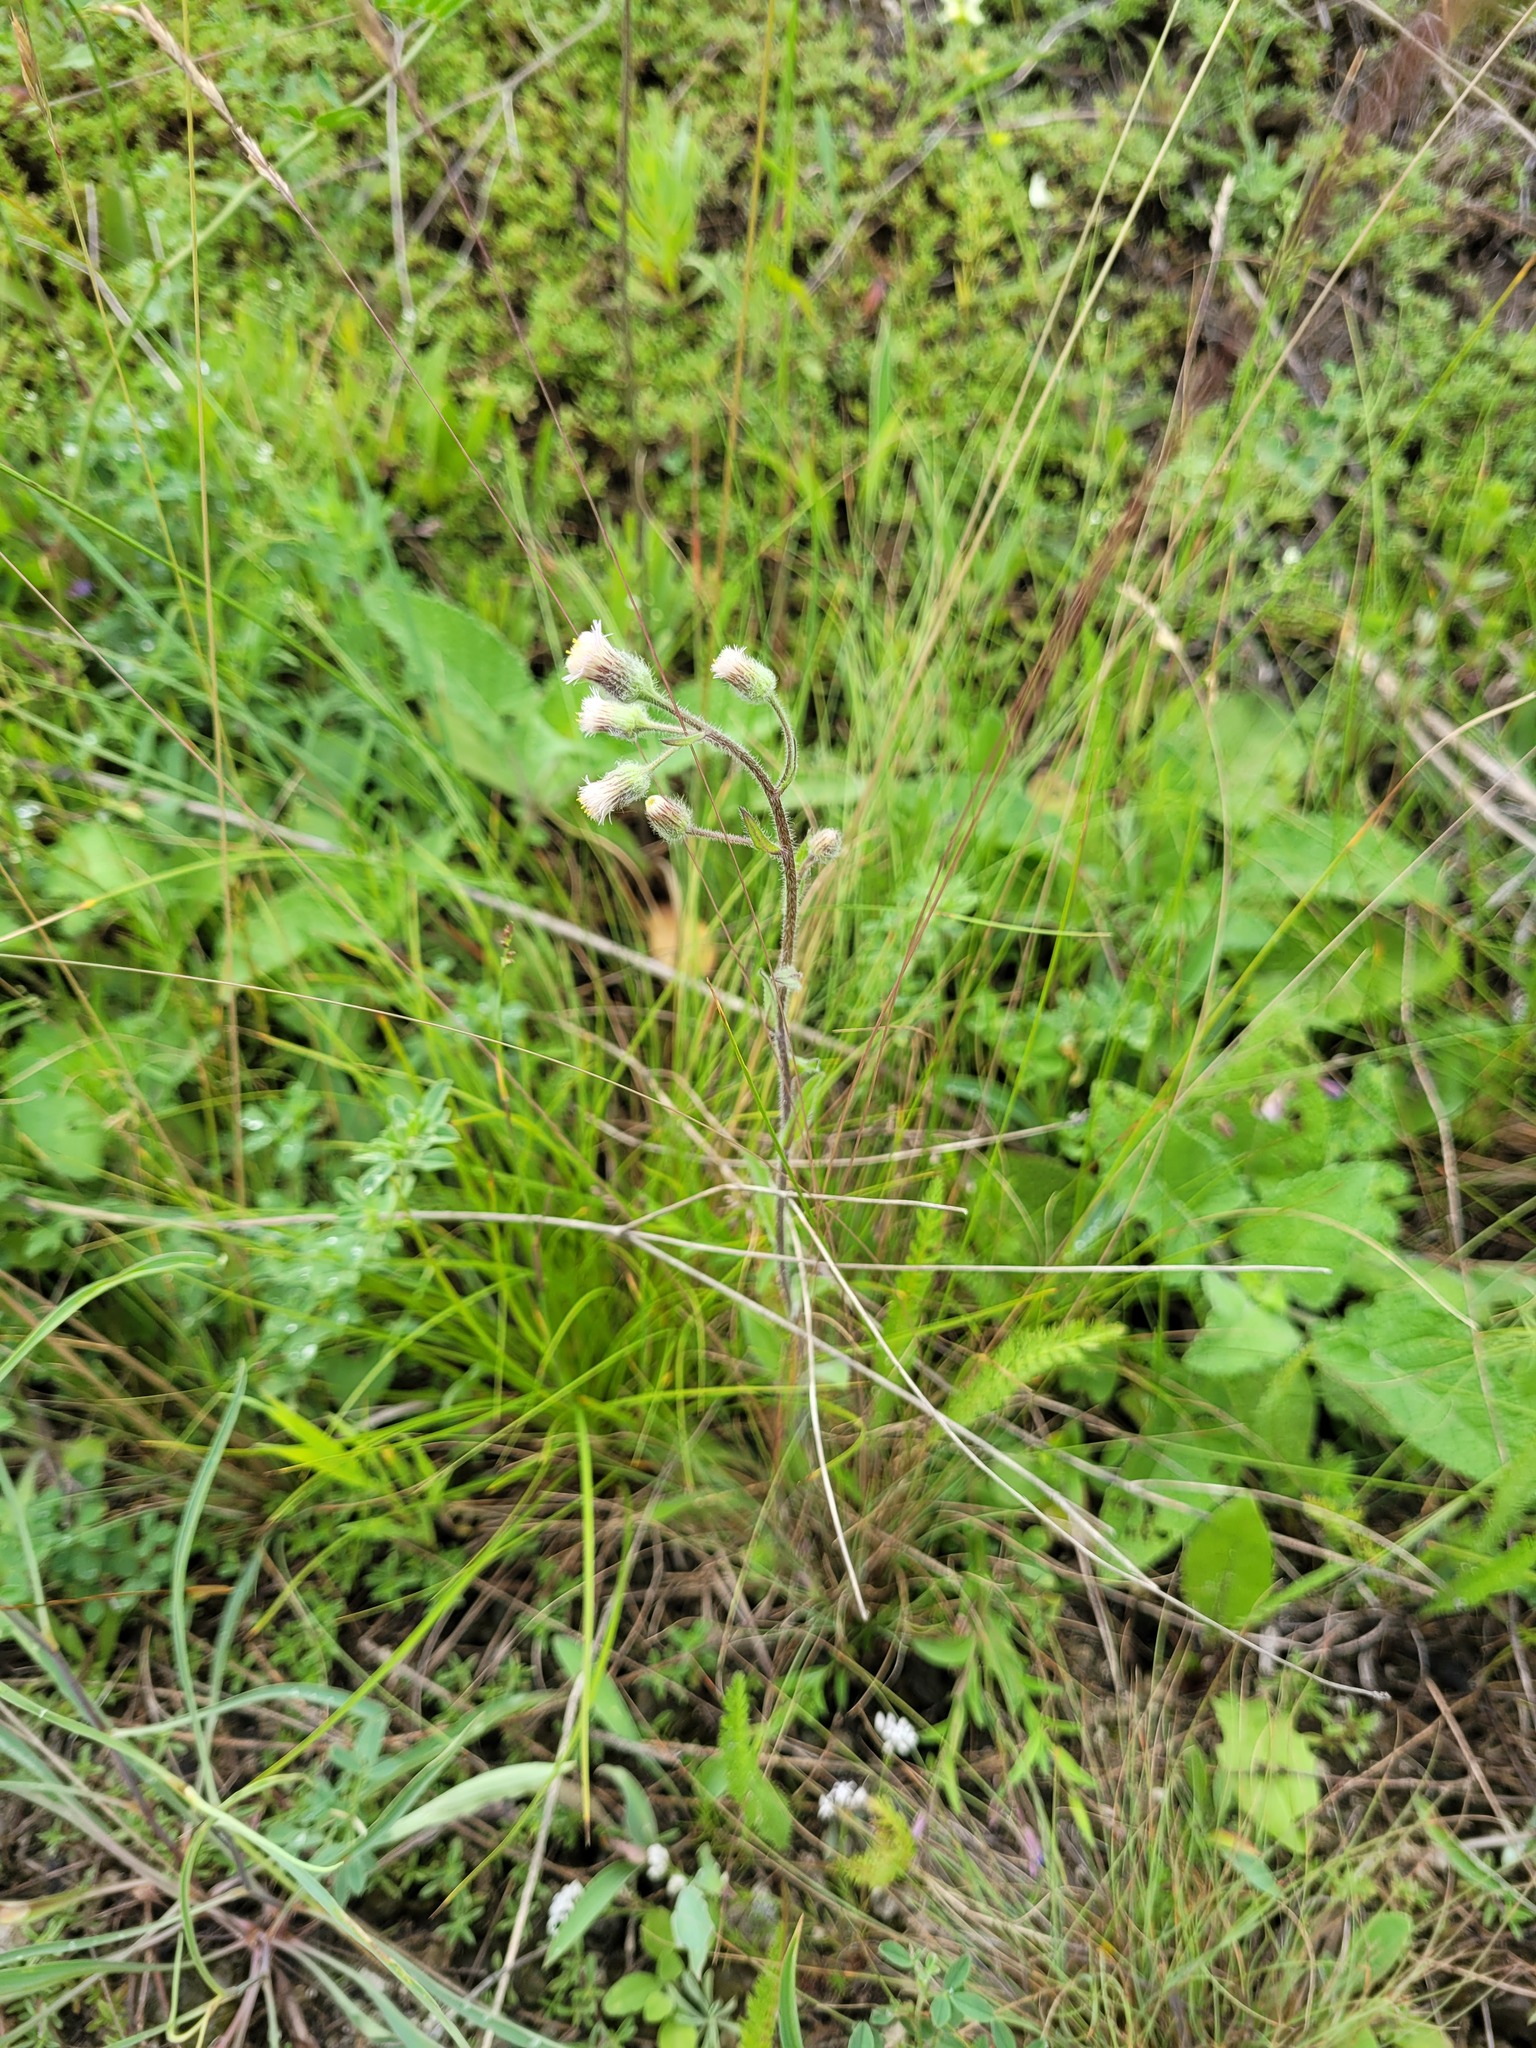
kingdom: Plantae
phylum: Tracheophyta
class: Magnoliopsida
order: Asterales
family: Asteraceae
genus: Erigeron
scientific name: Erigeron acris
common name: Blue fleabane
